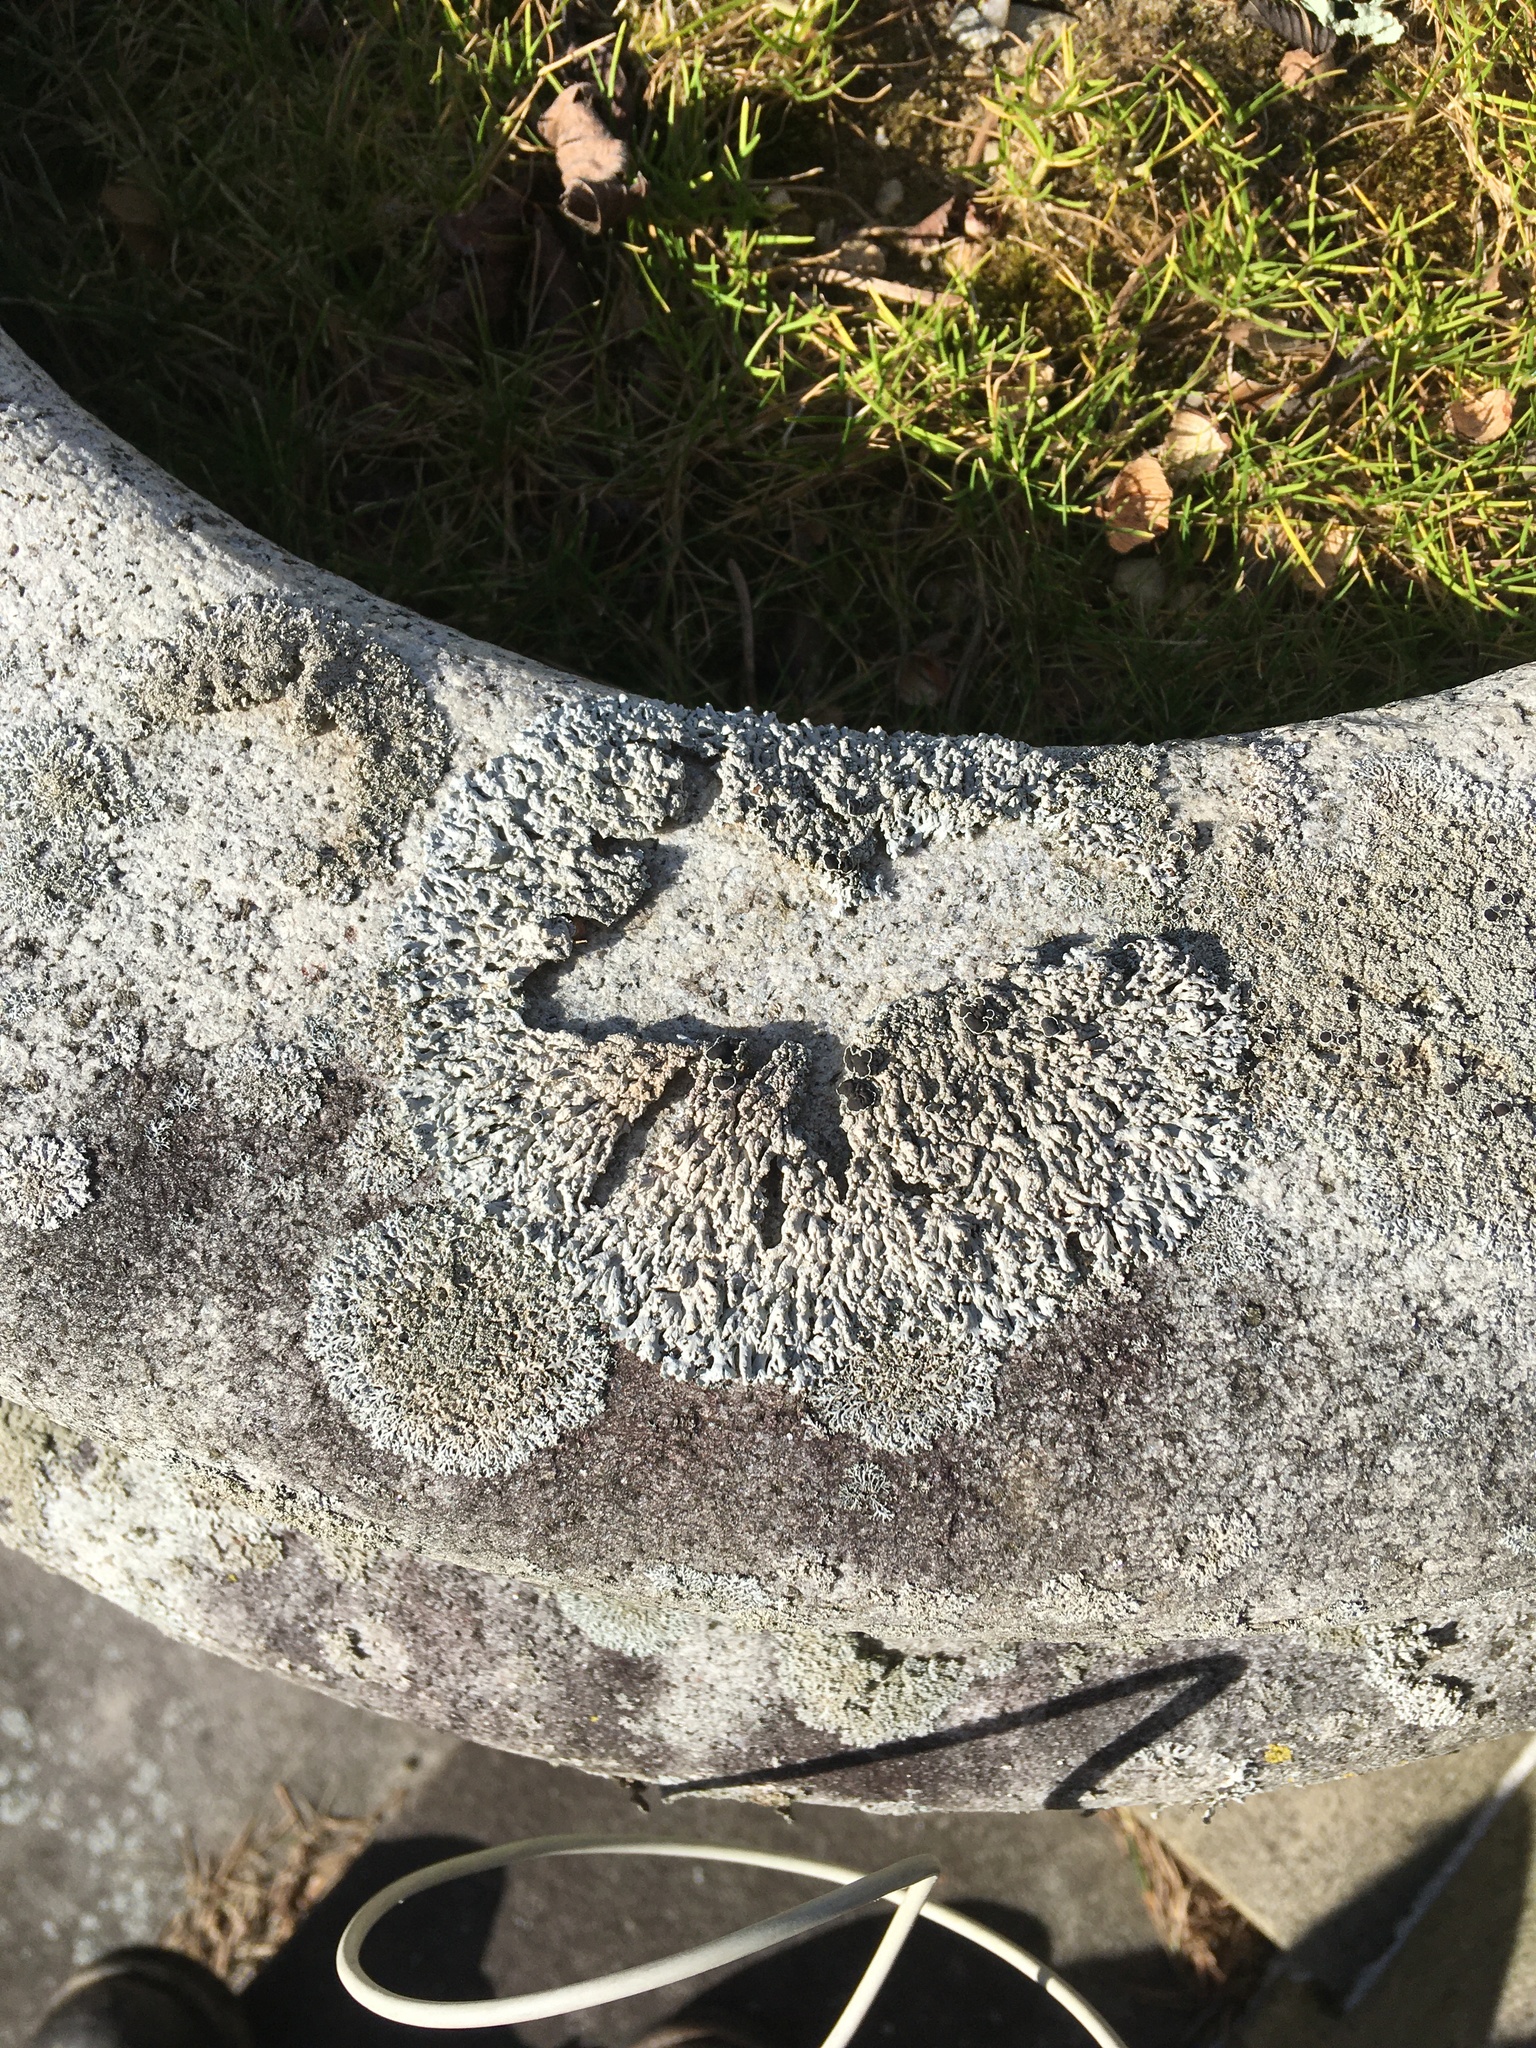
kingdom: Fungi
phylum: Ascomycota
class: Lecanoromycetes
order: Caliciales
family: Physciaceae
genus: Physcia
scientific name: Physcia stellaris
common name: Star rosette lichen
